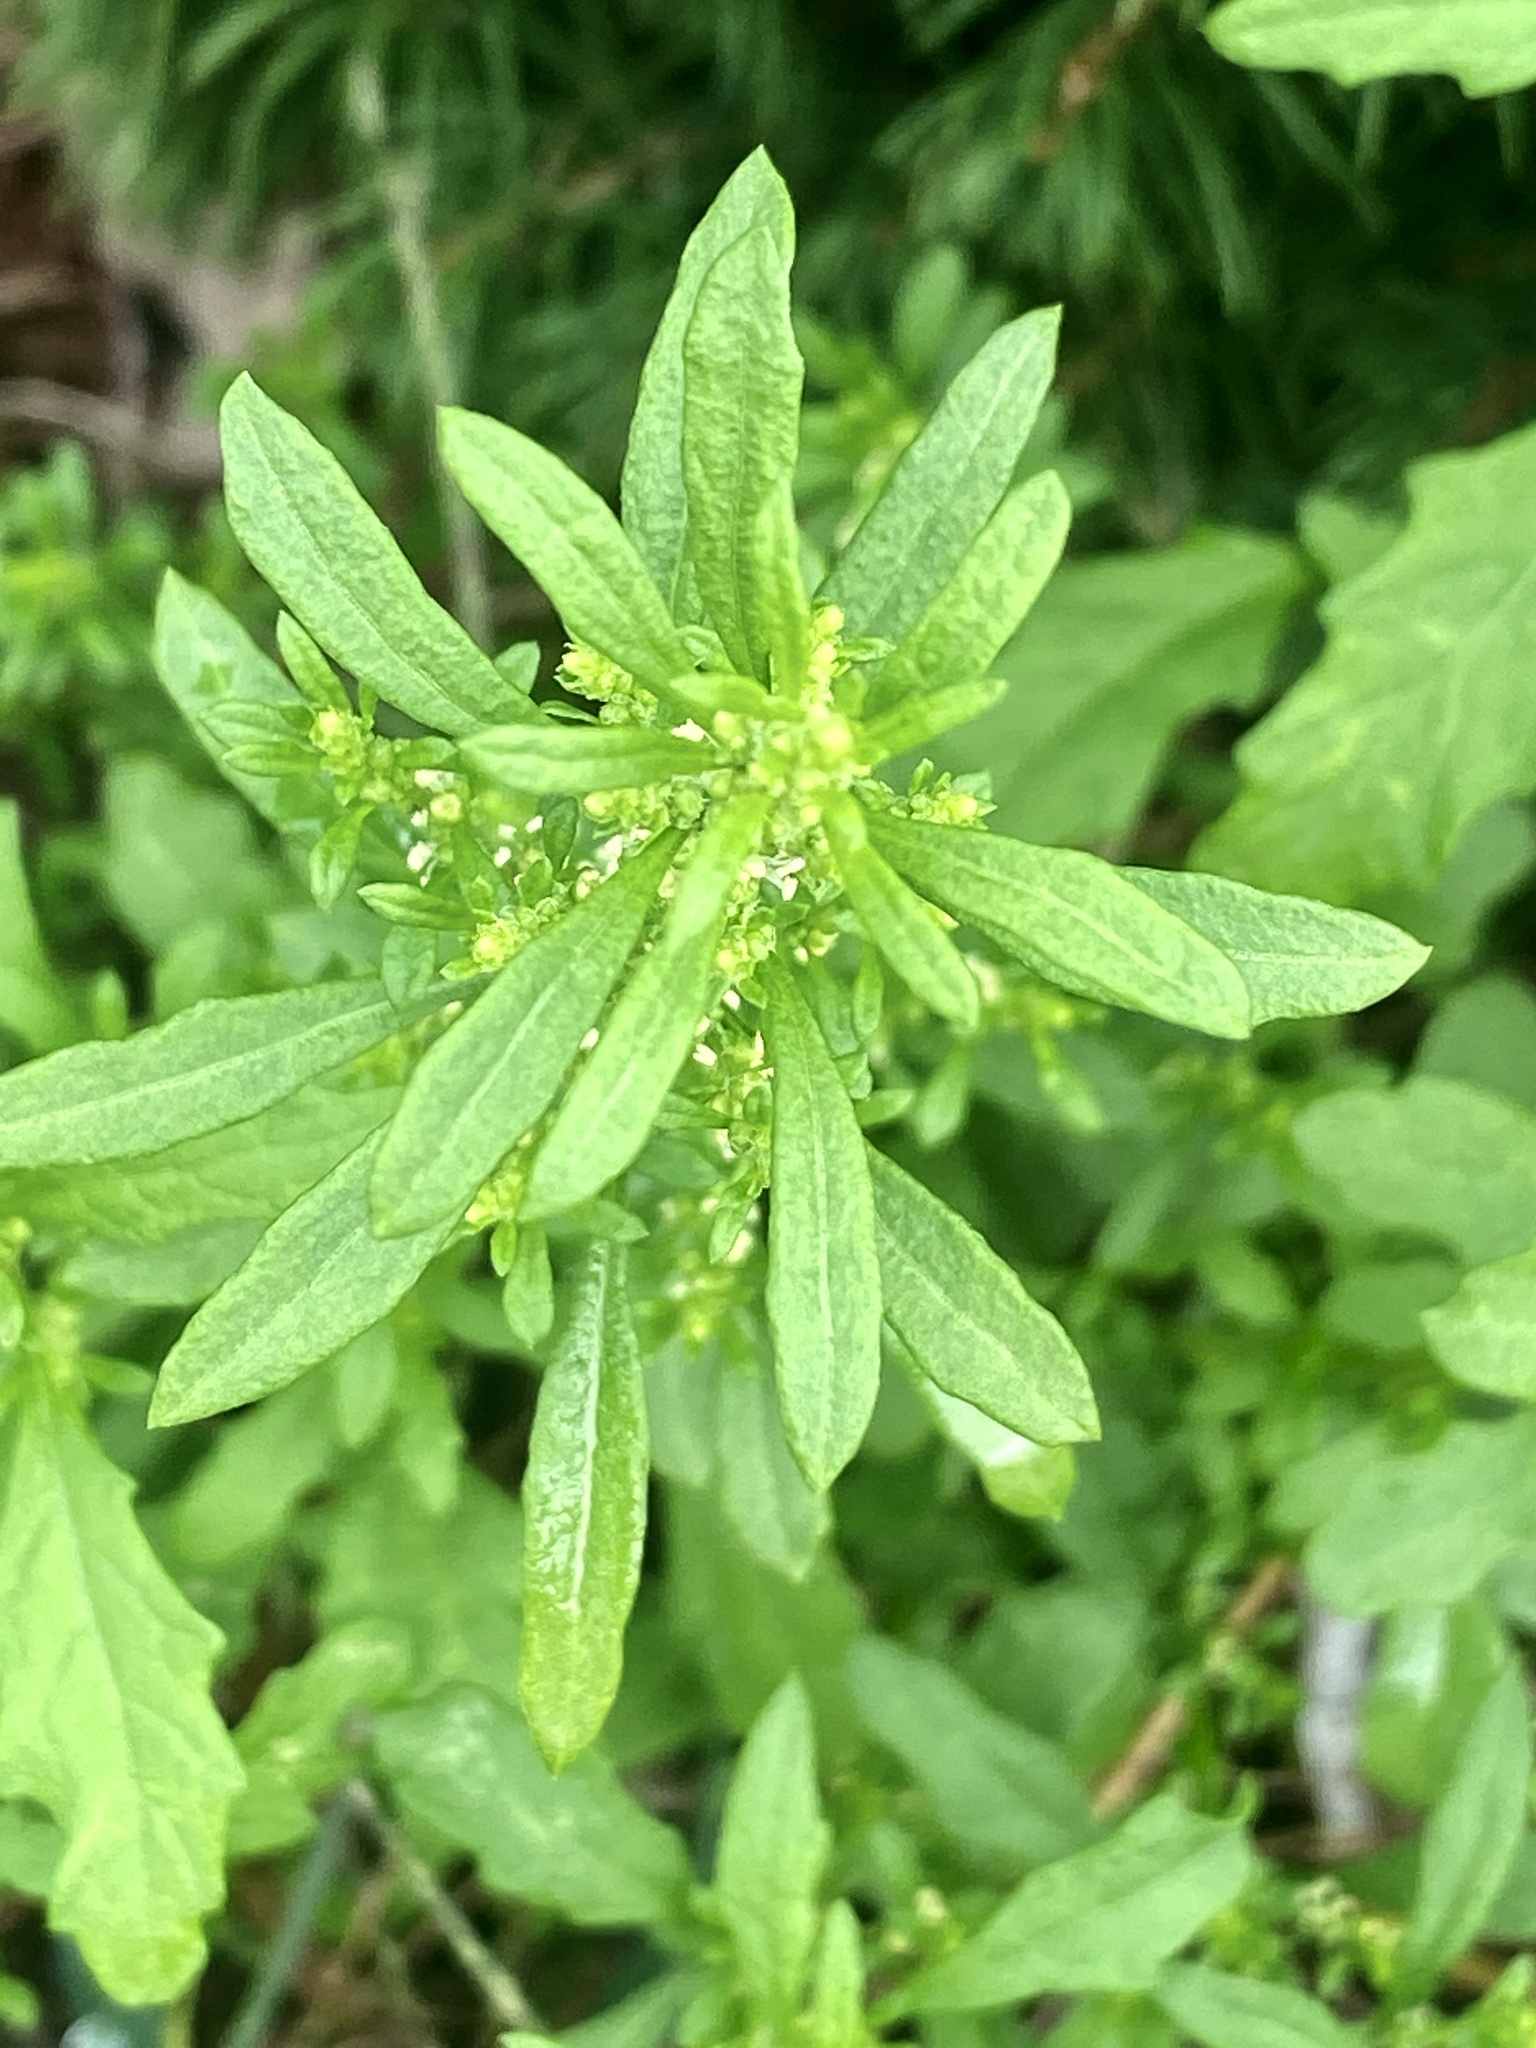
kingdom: Plantae
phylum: Tracheophyta
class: Magnoliopsida
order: Caryophyllales
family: Amaranthaceae
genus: Dysphania
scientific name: Dysphania ambrosioides
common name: Wormseed
